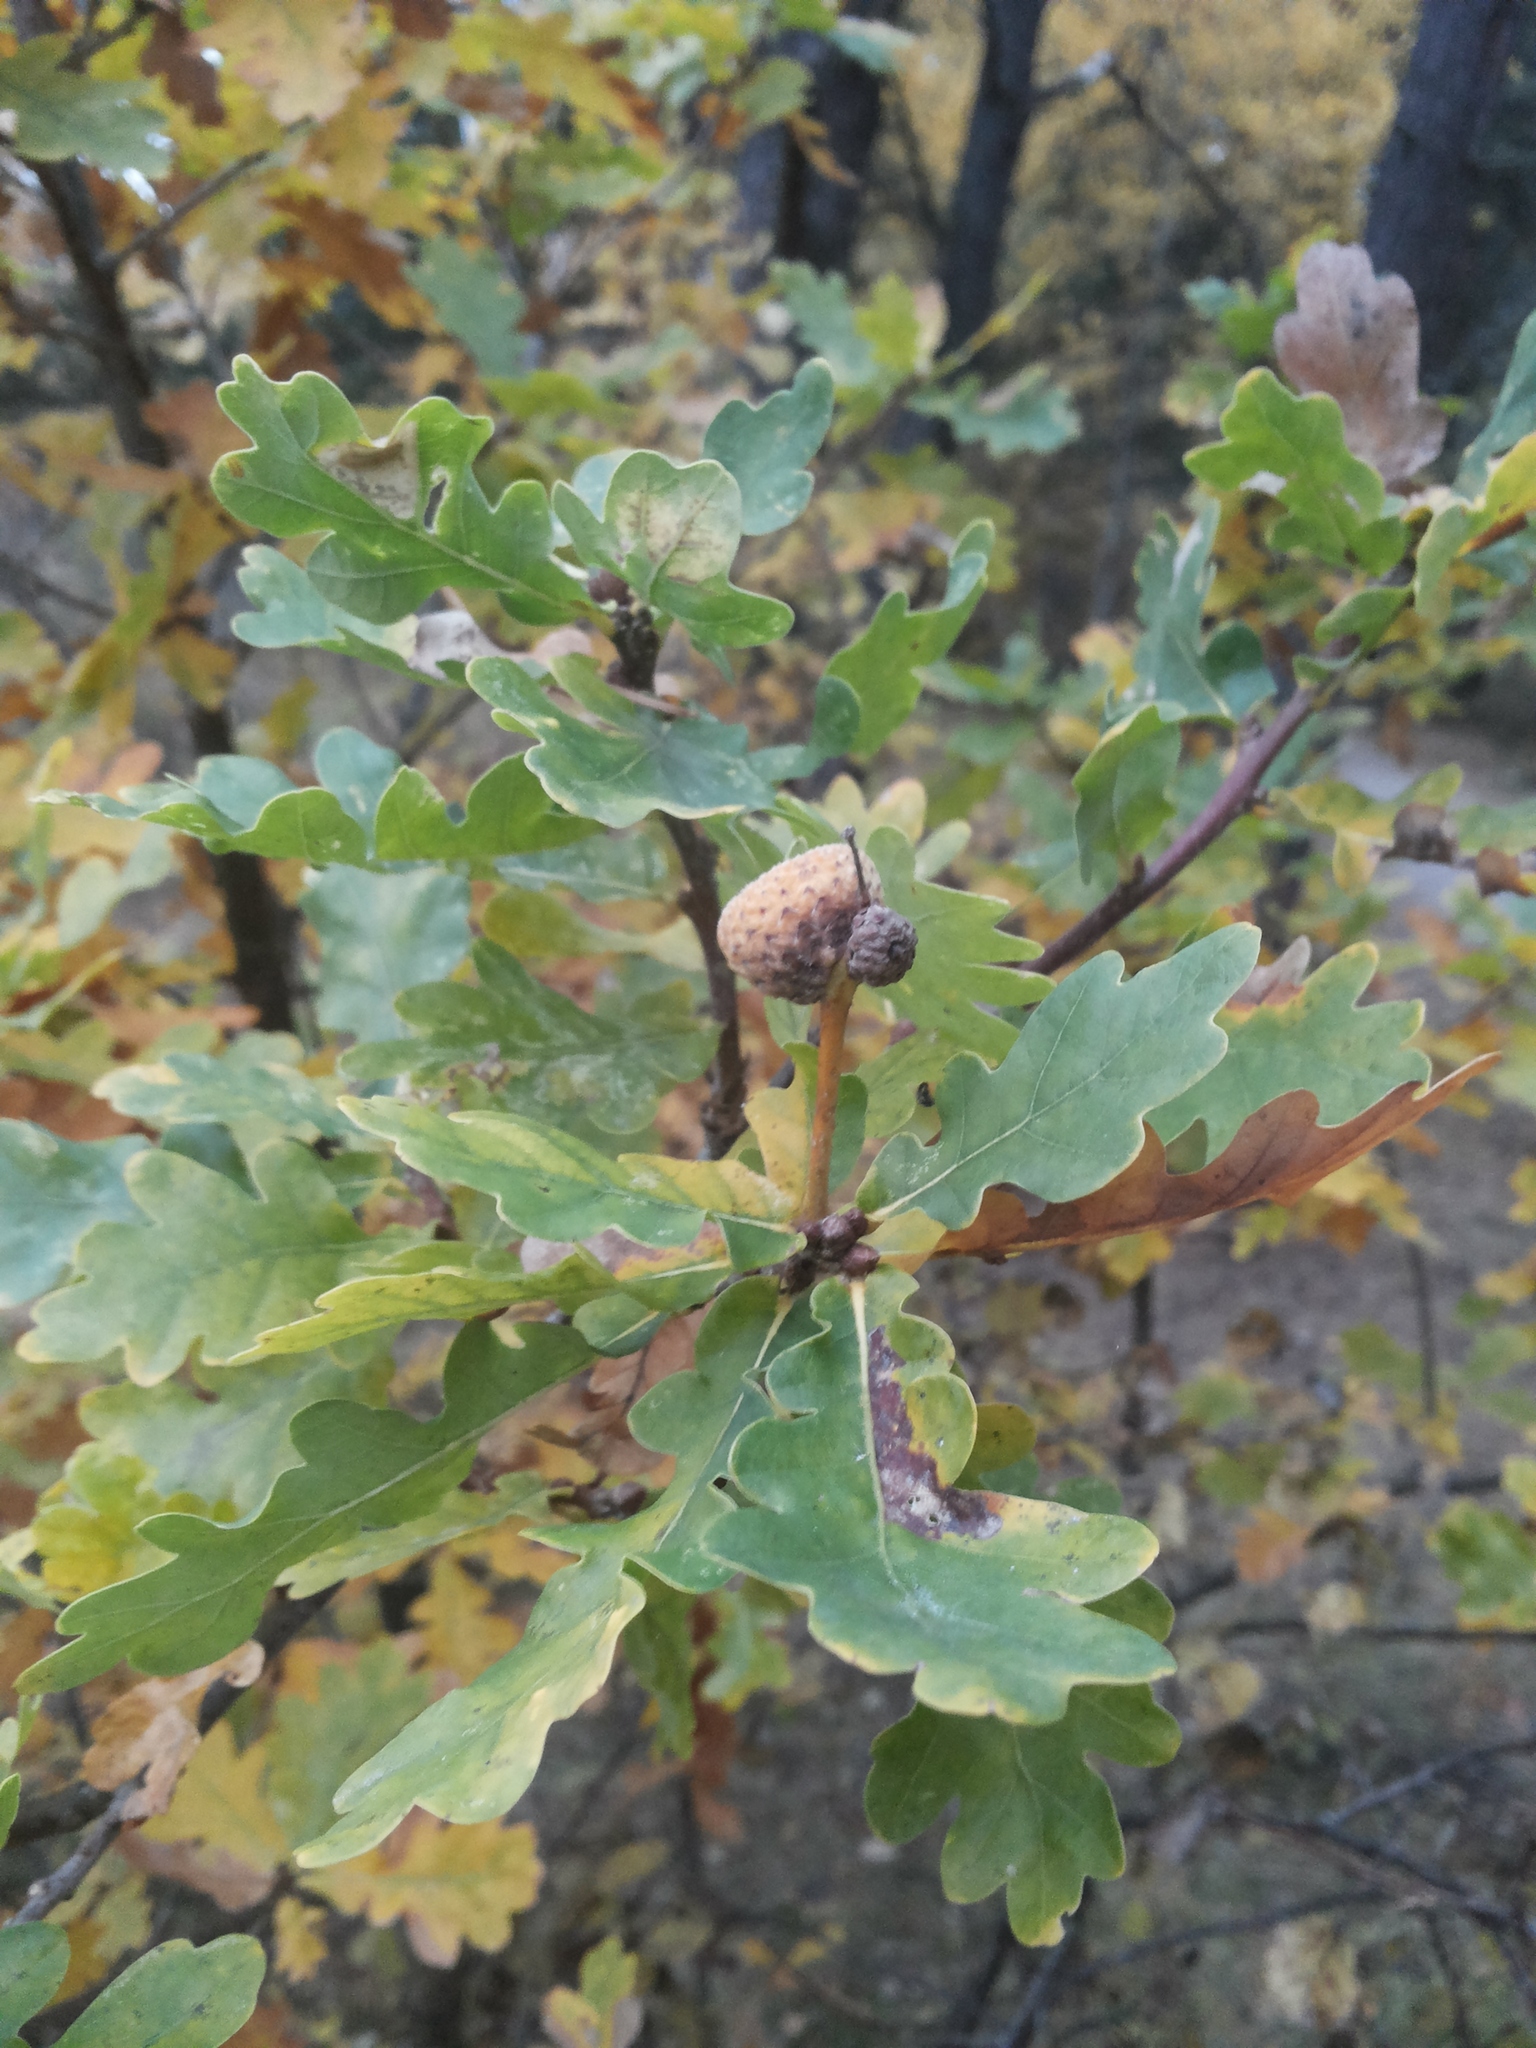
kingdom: Plantae
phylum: Tracheophyta
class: Magnoliopsida
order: Fagales
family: Fagaceae
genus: Quercus
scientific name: Quercus robur
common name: Pedunculate oak
